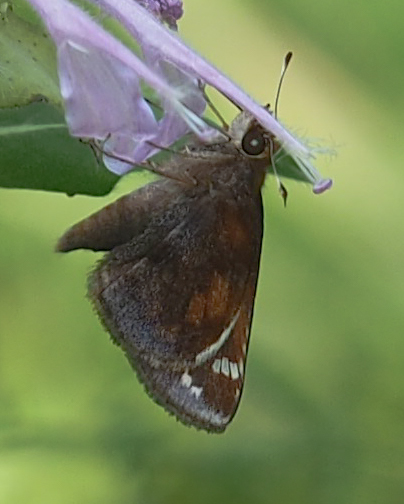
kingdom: Animalia
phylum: Arthropoda
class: Insecta
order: Lepidoptera
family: Hesperiidae
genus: Lon
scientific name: Lon zabulon
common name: Zabulon skipper
